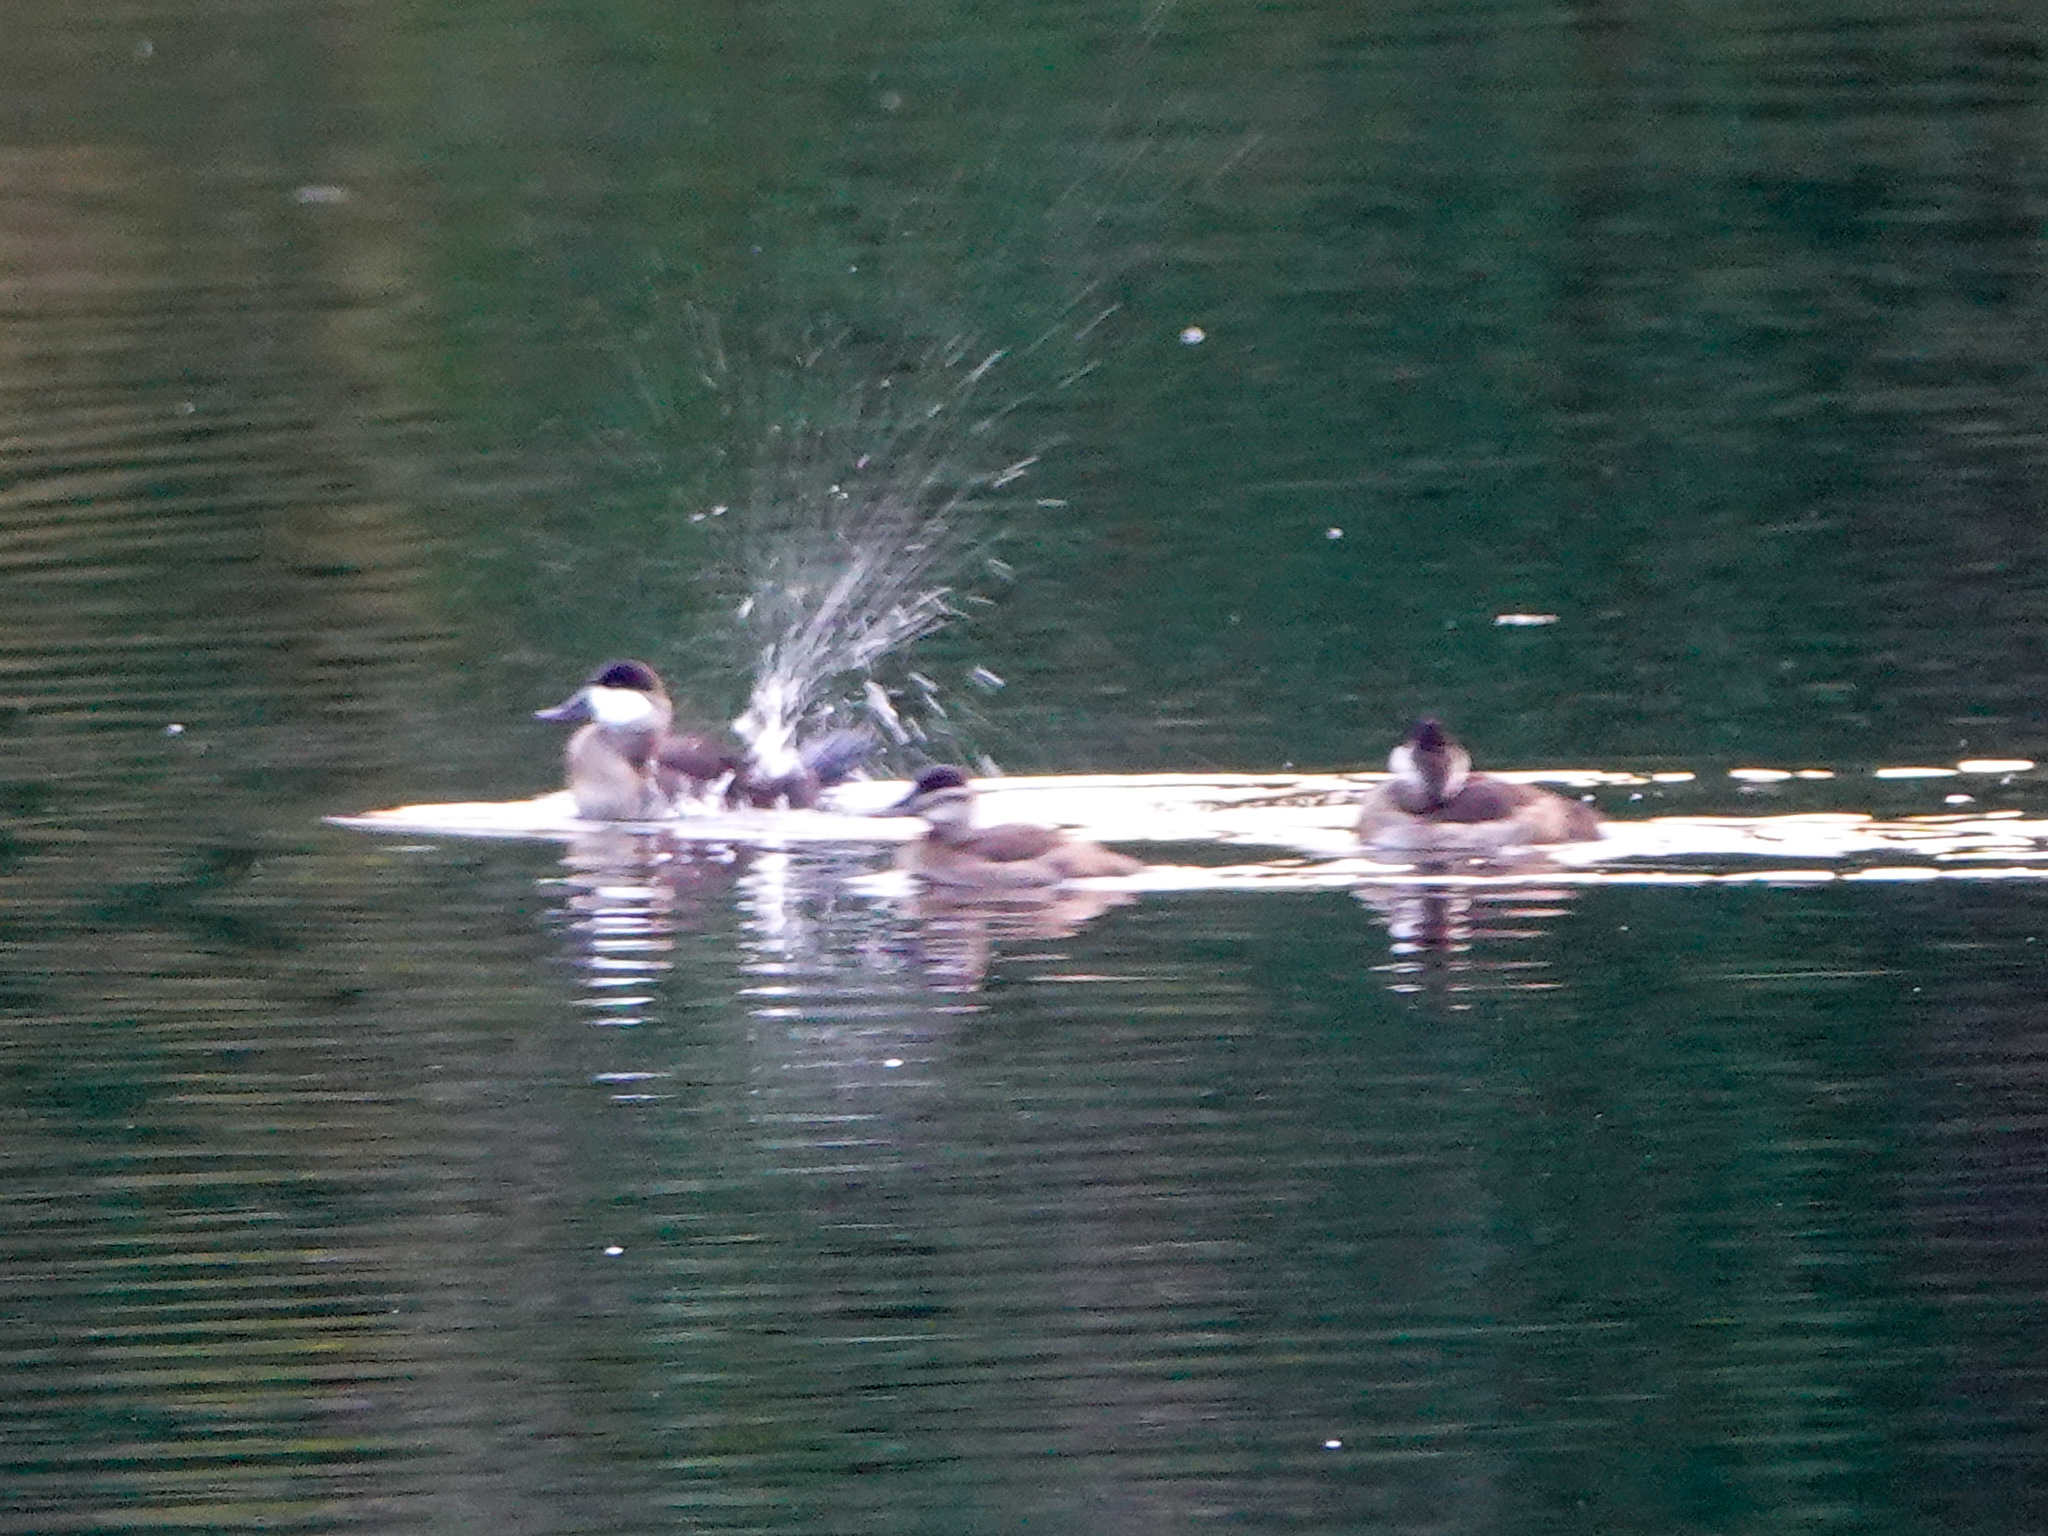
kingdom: Animalia
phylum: Chordata
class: Aves
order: Anseriformes
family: Anatidae
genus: Oxyura
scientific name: Oxyura jamaicensis
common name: Ruddy duck
